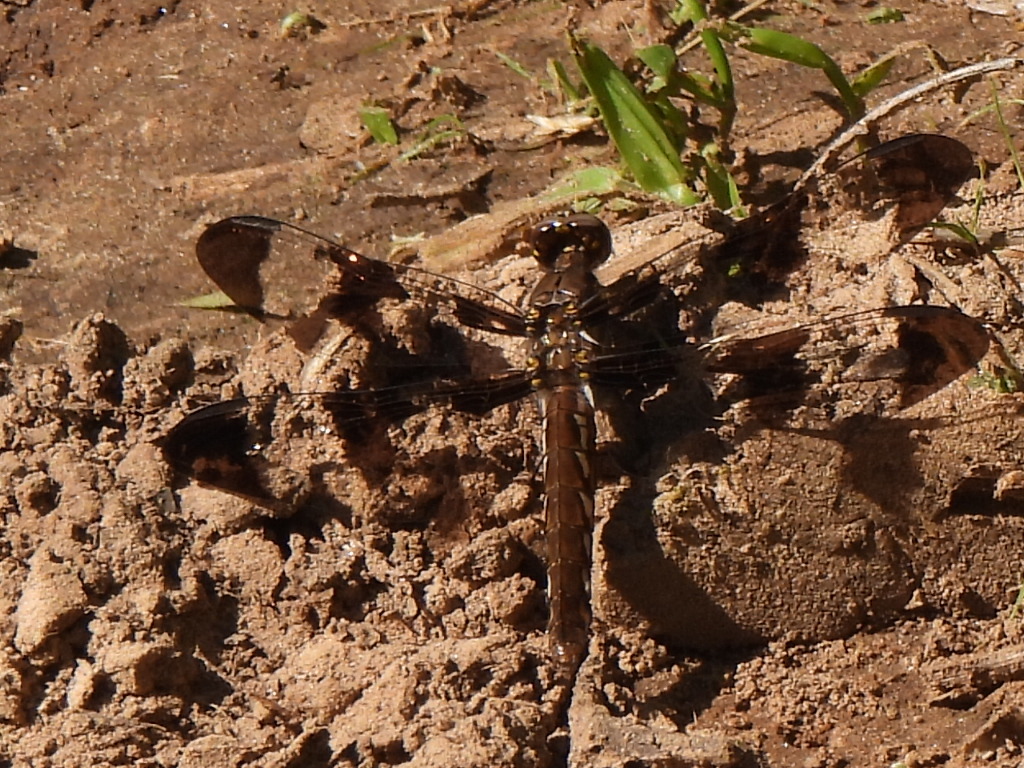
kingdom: Animalia
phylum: Arthropoda
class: Insecta
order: Odonata
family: Libellulidae
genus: Plathemis
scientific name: Plathemis lydia
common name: Common whitetail
